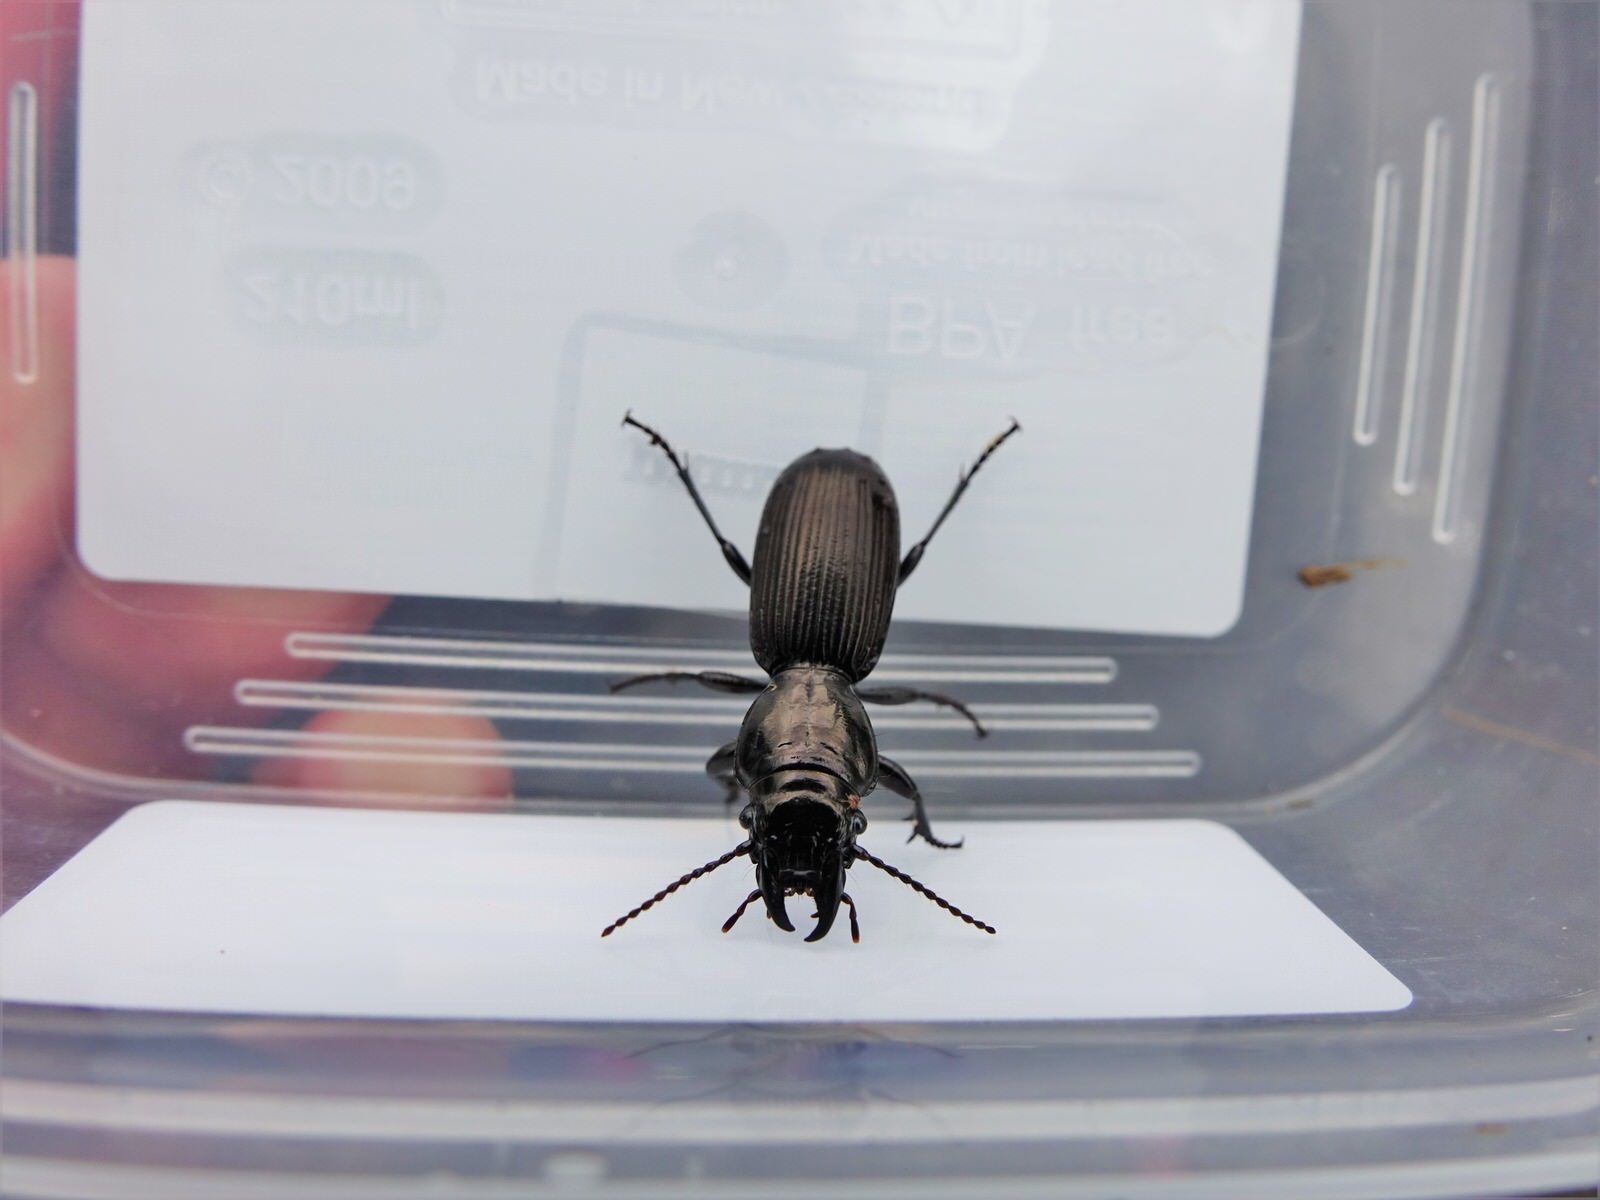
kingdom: Animalia
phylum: Arthropoda
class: Insecta
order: Coleoptera
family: Carabidae
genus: Mecodema
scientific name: Mecodema spiniferum
